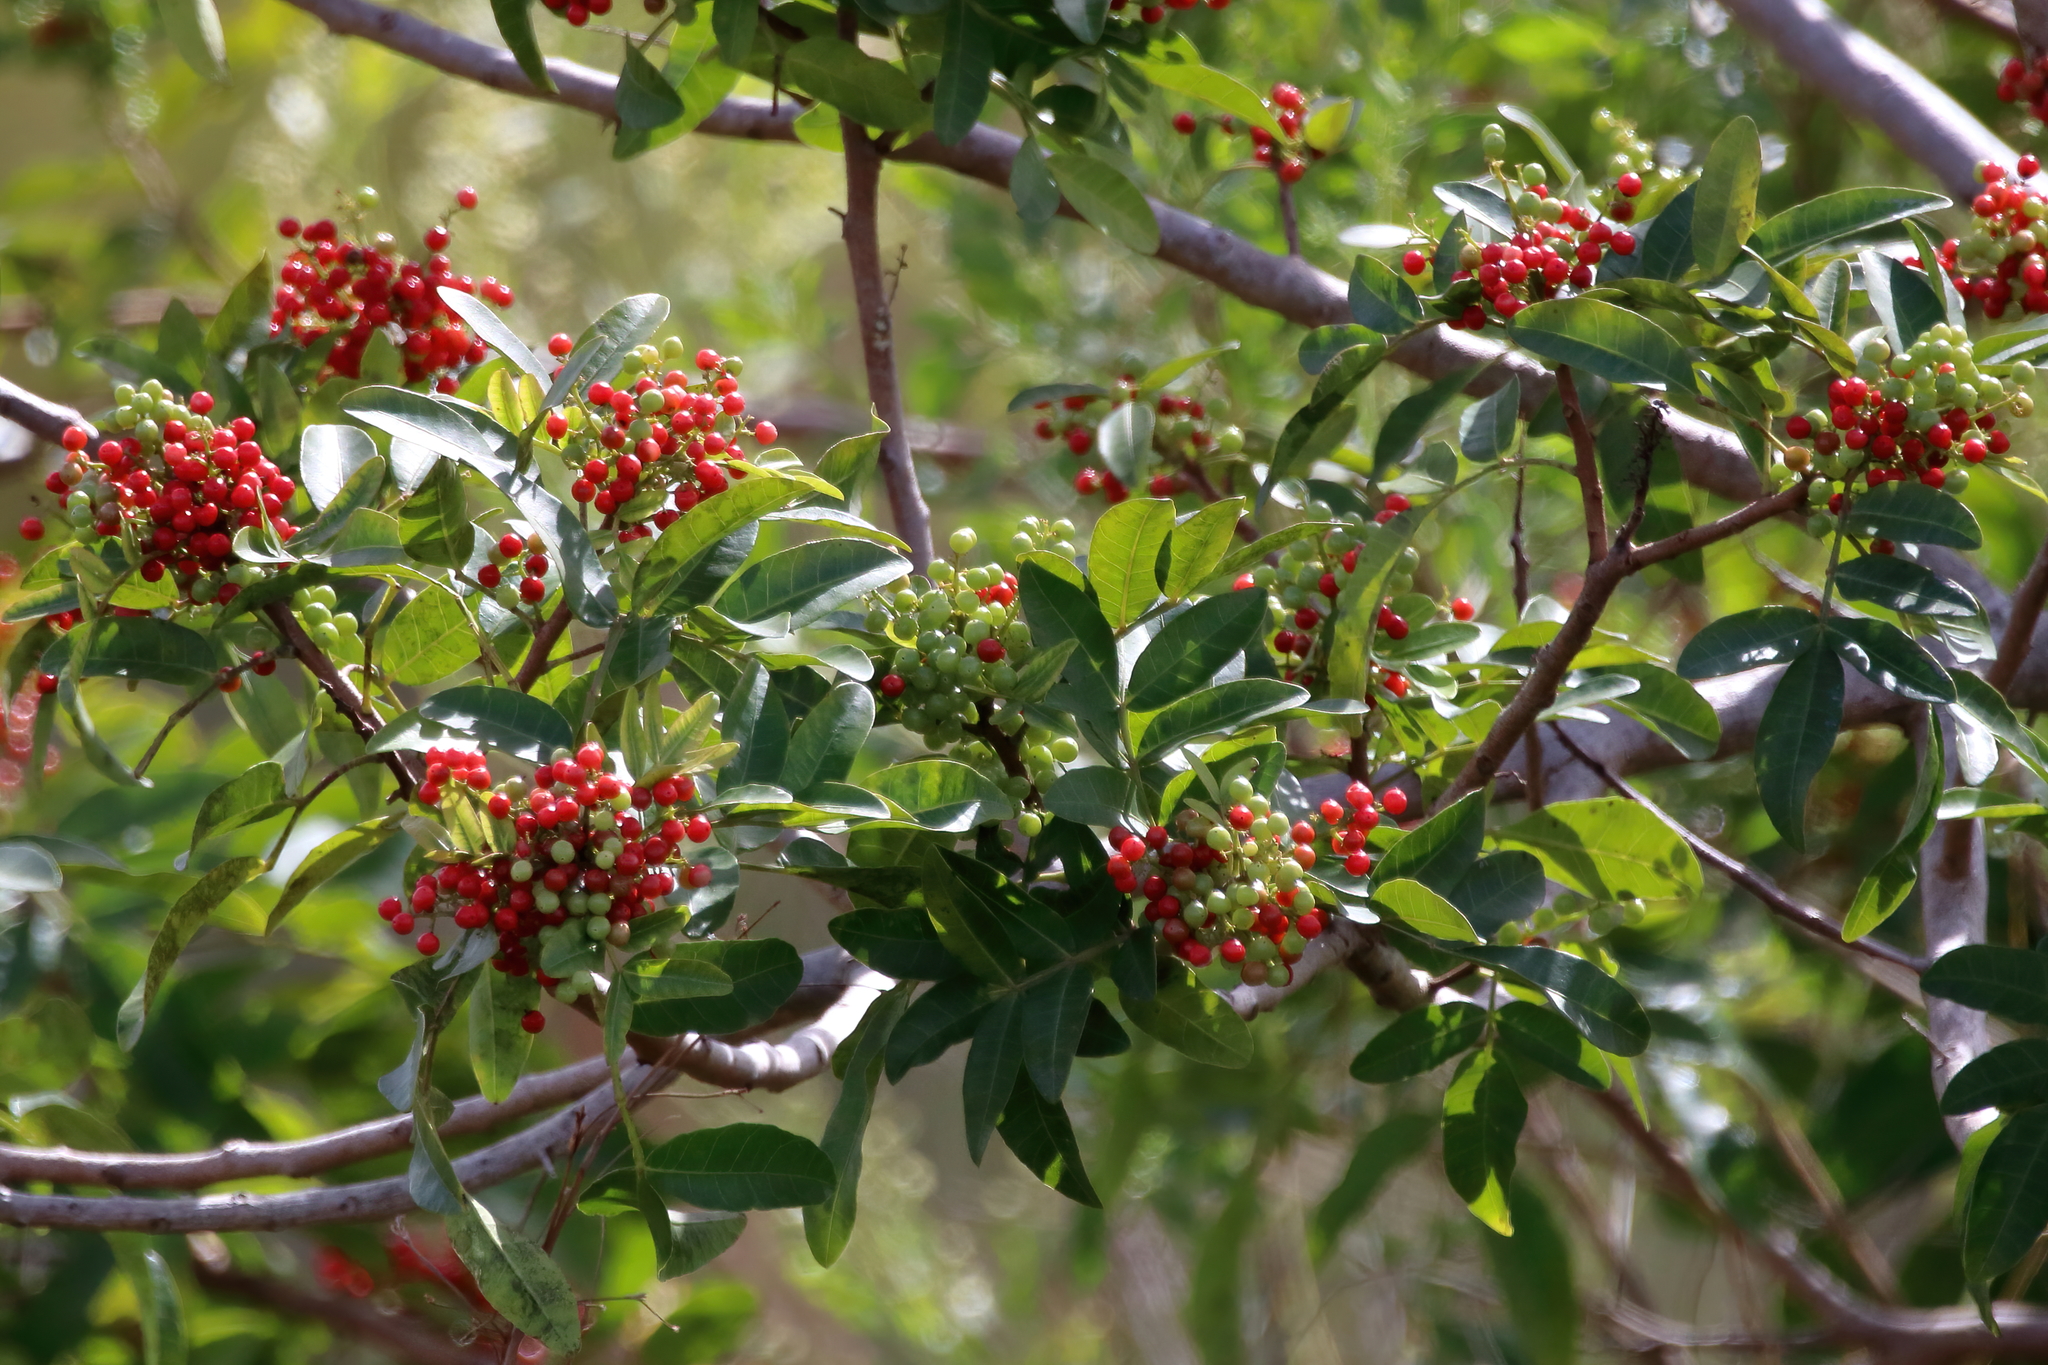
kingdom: Plantae
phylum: Tracheophyta
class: Magnoliopsida
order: Sapindales
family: Anacardiaceae
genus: Schinus
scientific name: Schinus terebinthifolia
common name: Brazilian peppertree
